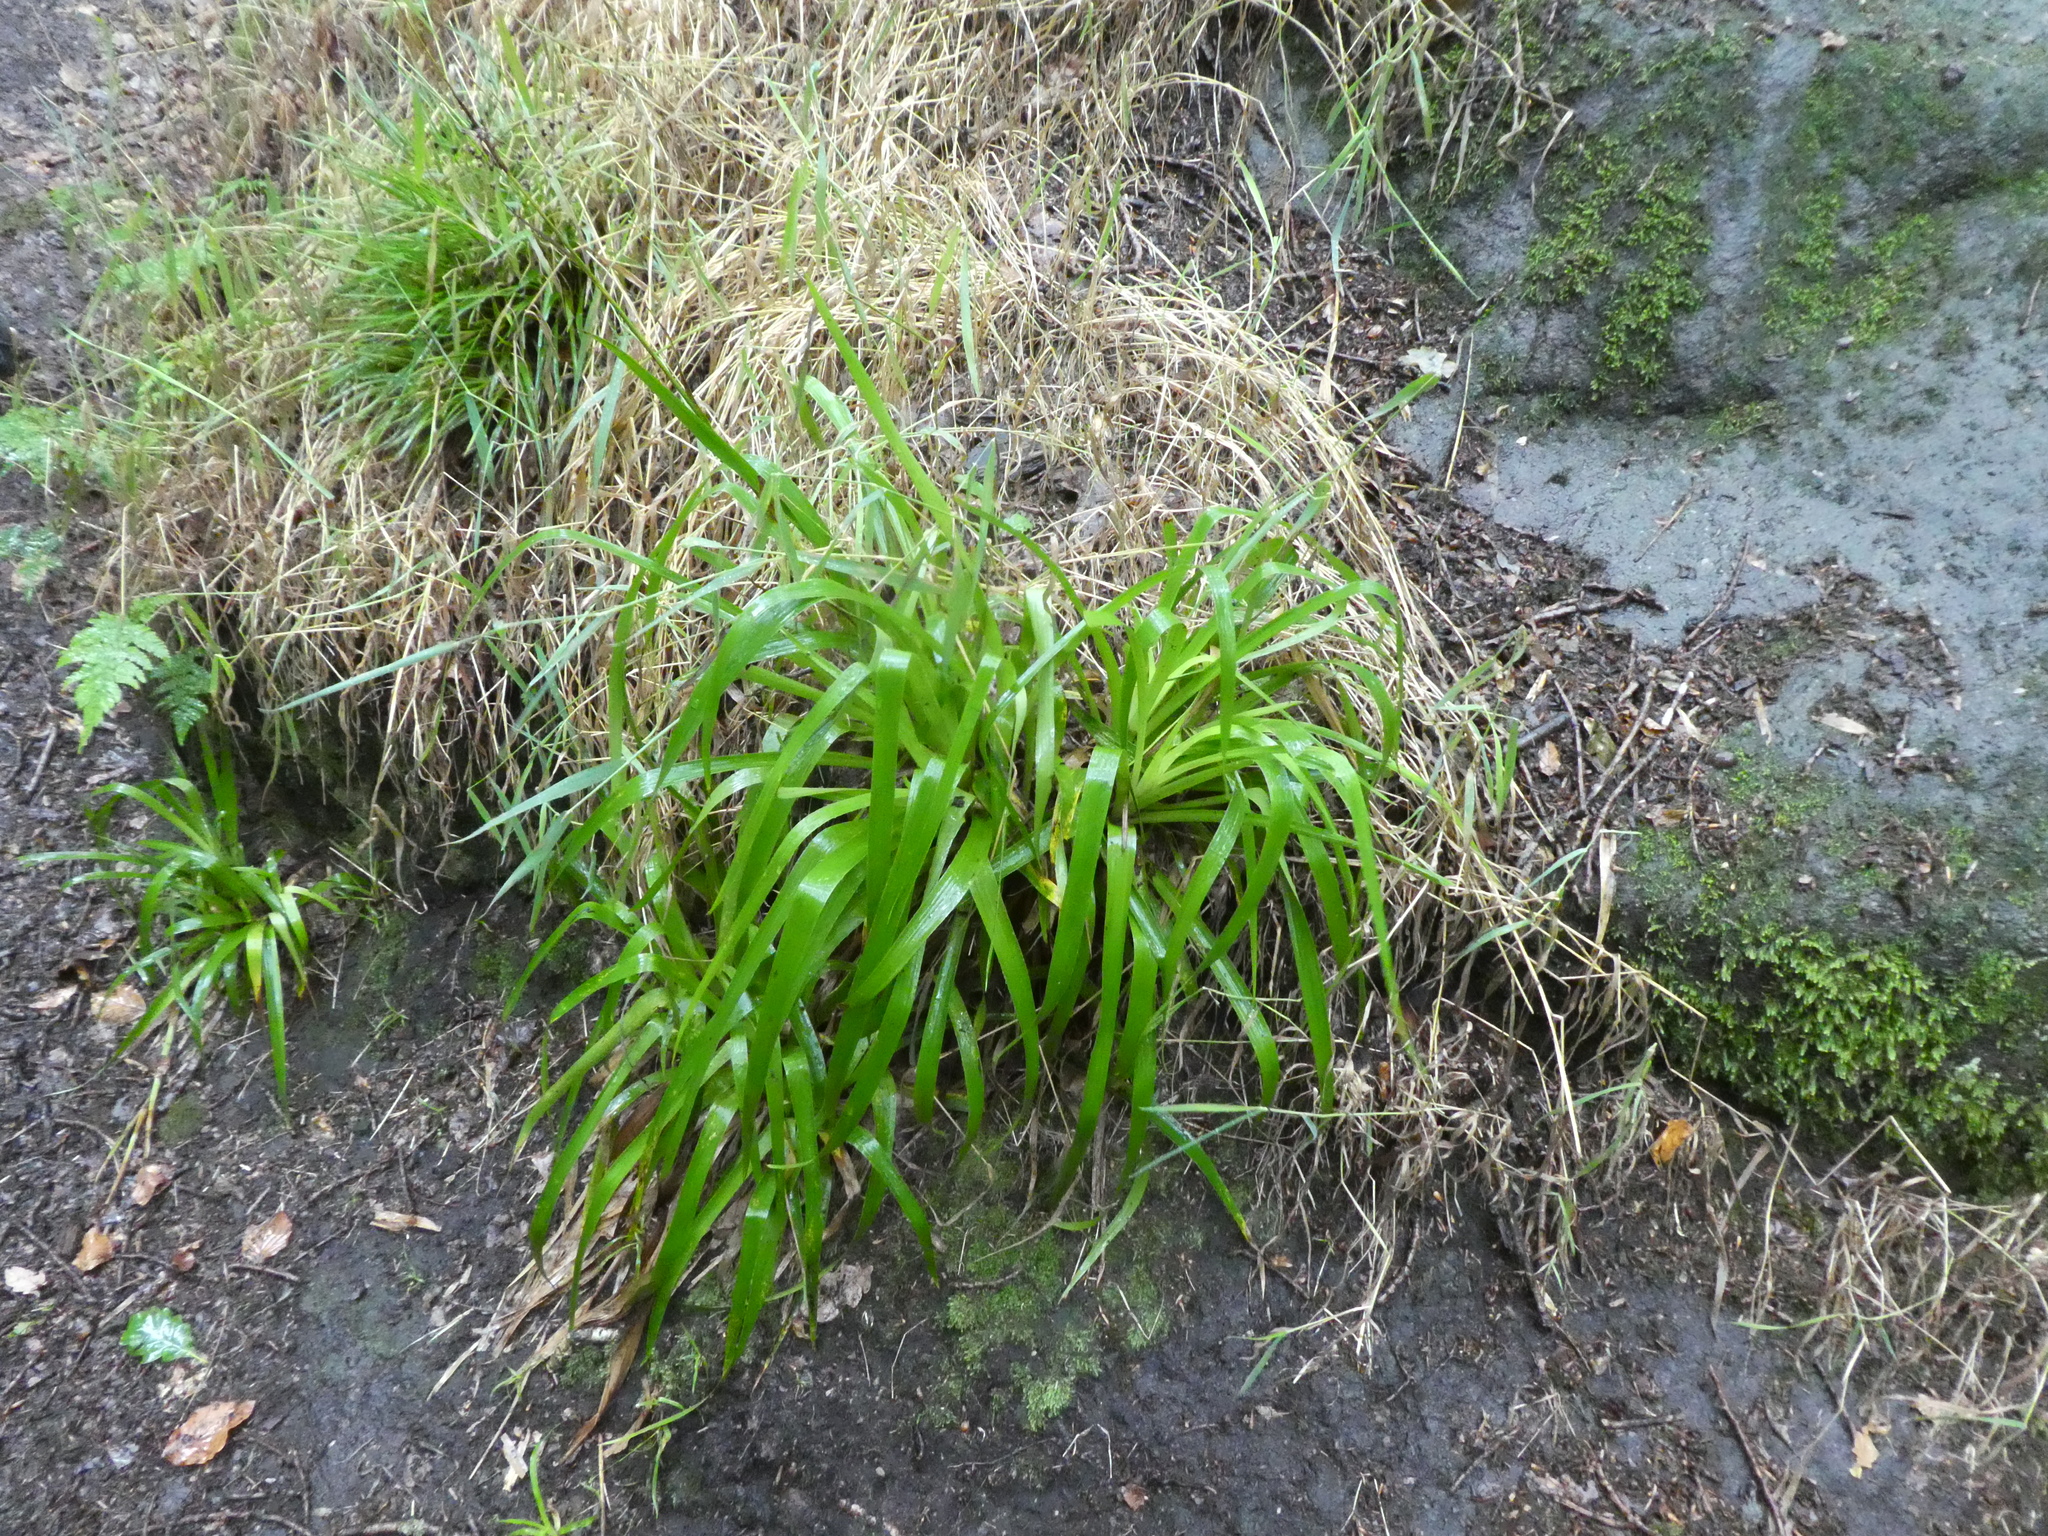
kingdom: Plantae
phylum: Tracheophyta
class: Liliopsida
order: Poales
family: Juncaceae
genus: Luzula
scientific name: Luzula sylvatica
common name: Great wood-rush
